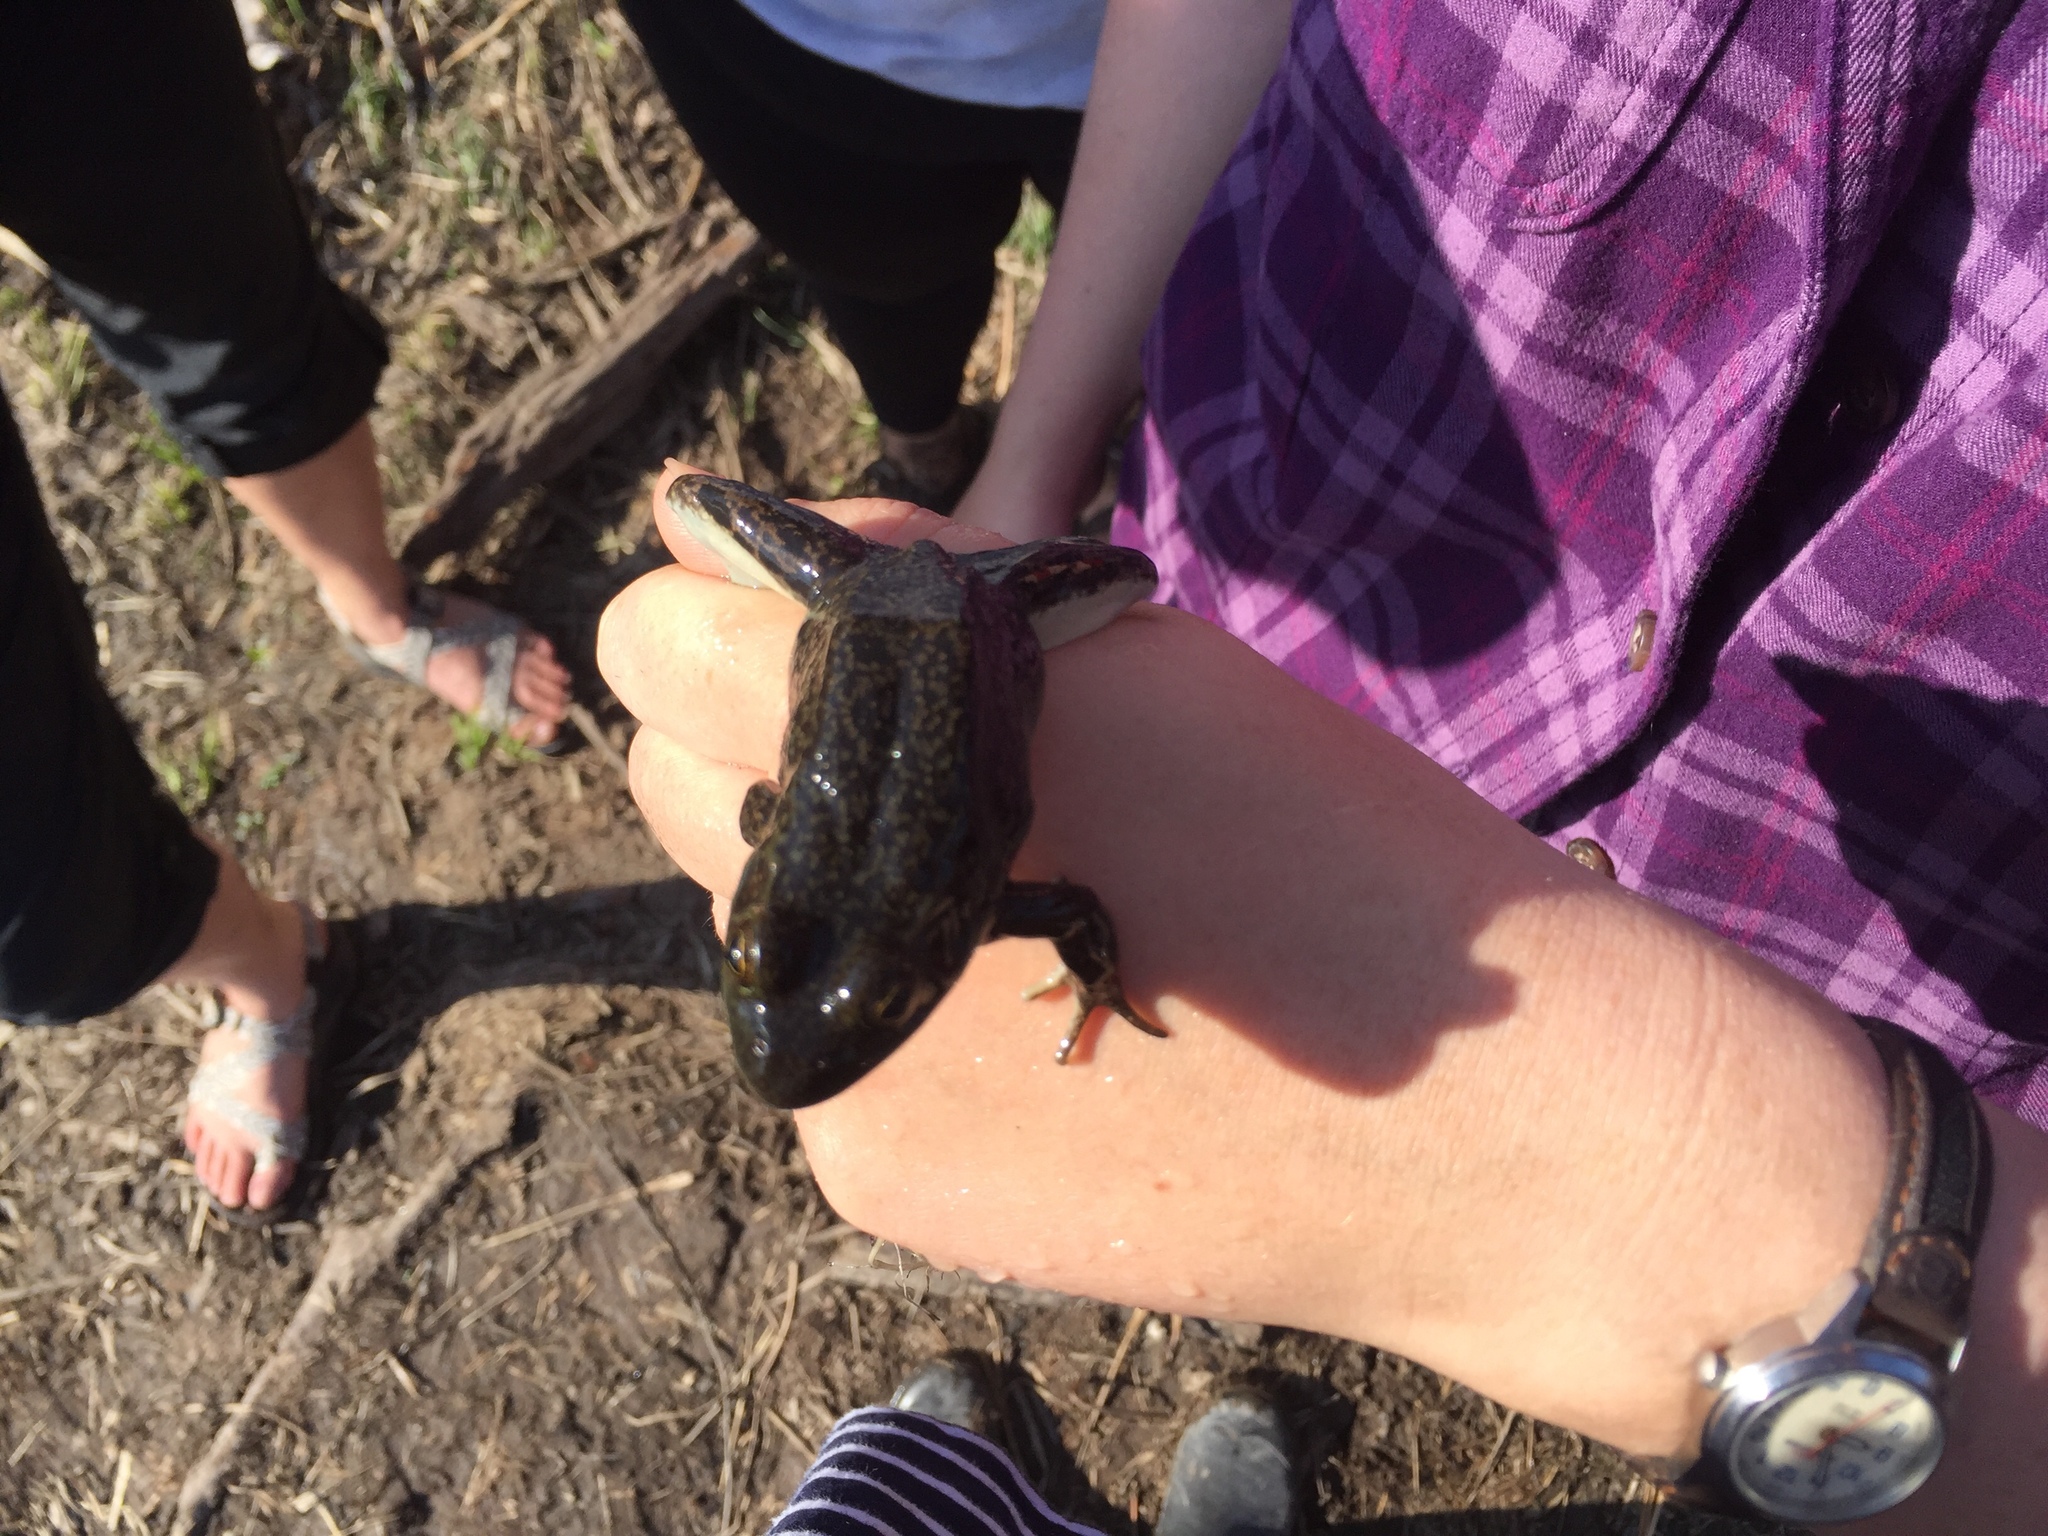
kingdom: Animalia
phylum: Chordata
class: Amphibia
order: Anura
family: Ranidae
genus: Lithobates
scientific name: Lithobates septentrionalis
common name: Mink frog
